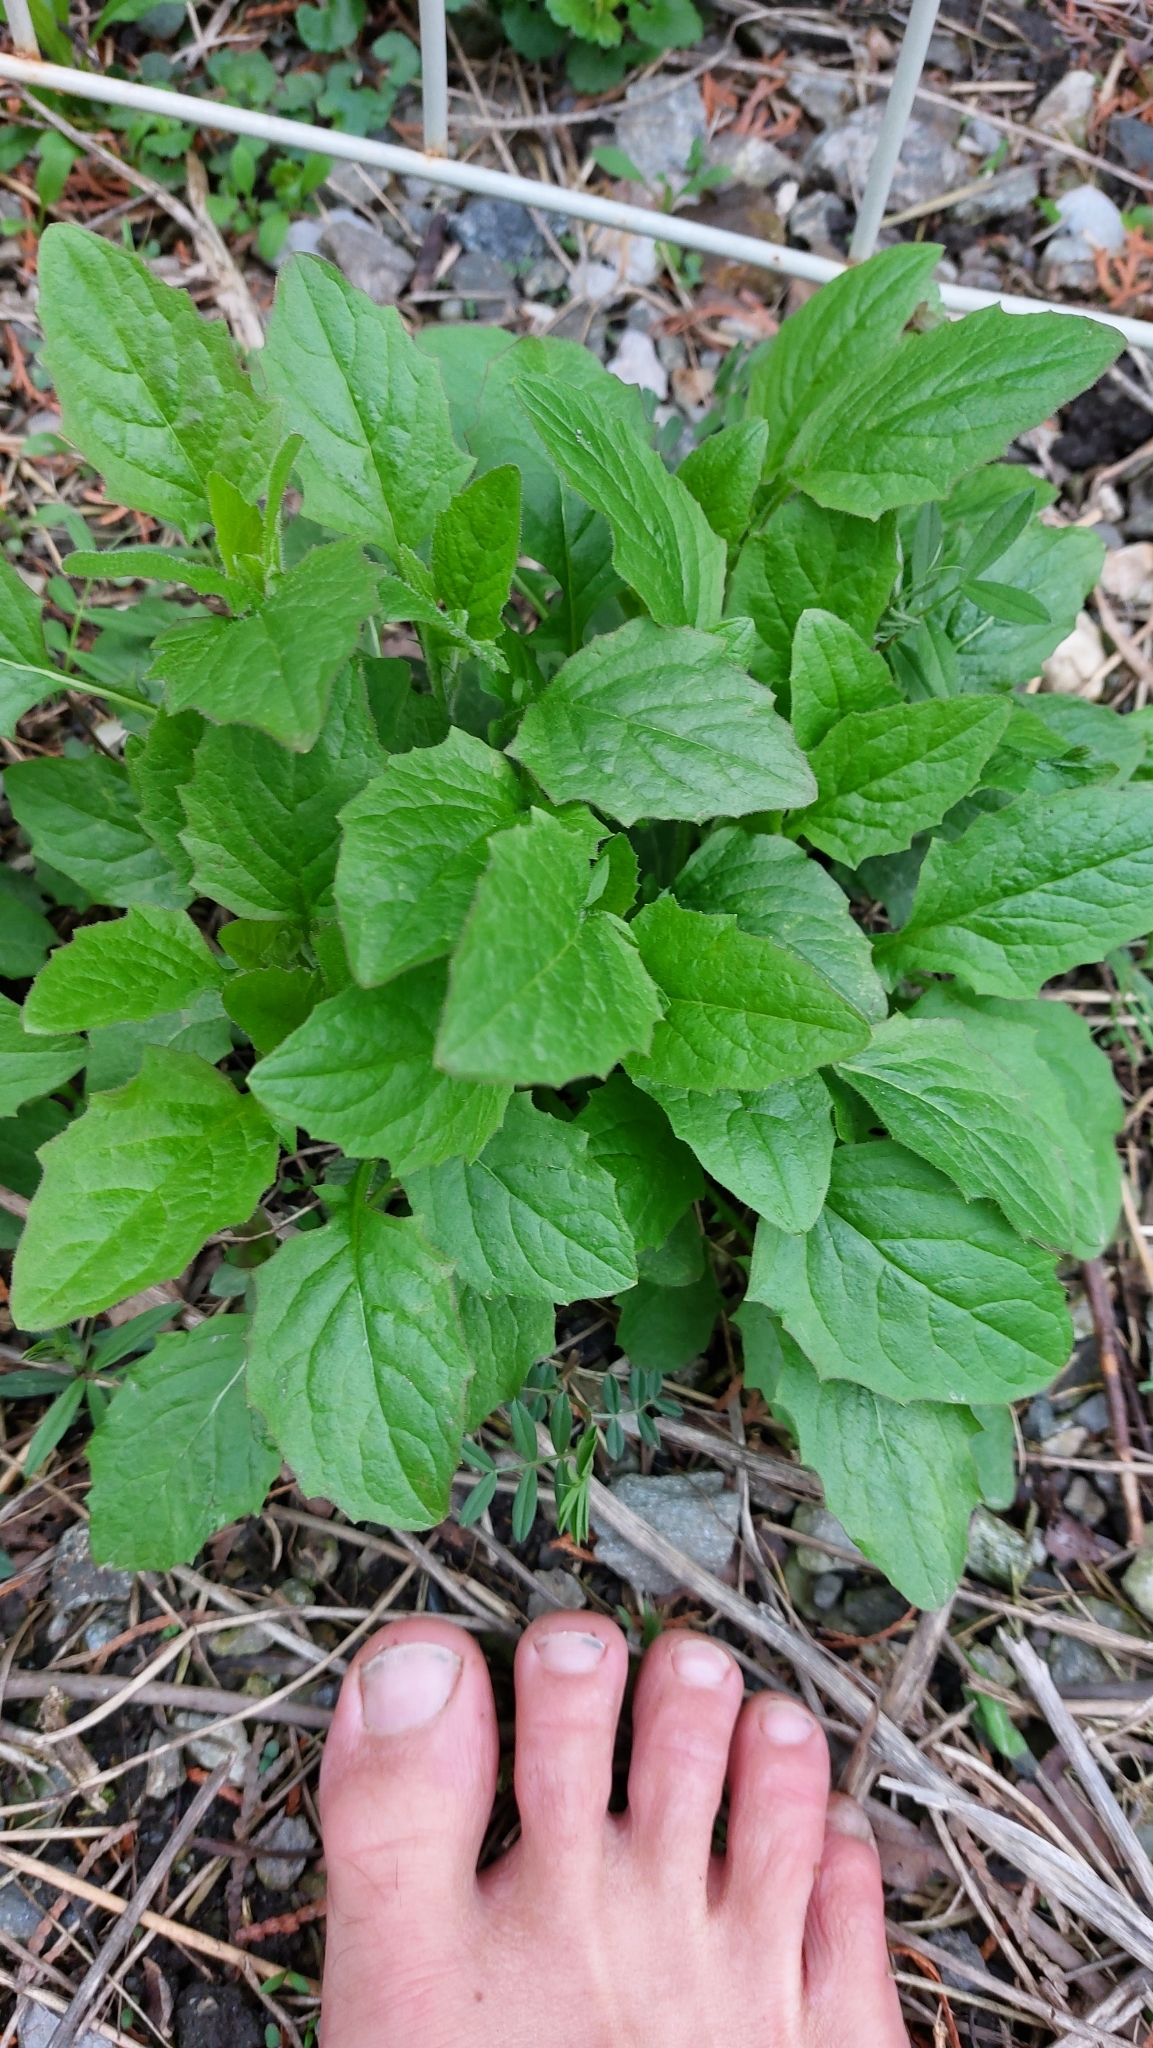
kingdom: Plantae
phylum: Tracheophyta
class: Magnoliopsida
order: Asterales
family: Asteraceae
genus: Lapsana
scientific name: Lapsana communis
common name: Nipplewort
